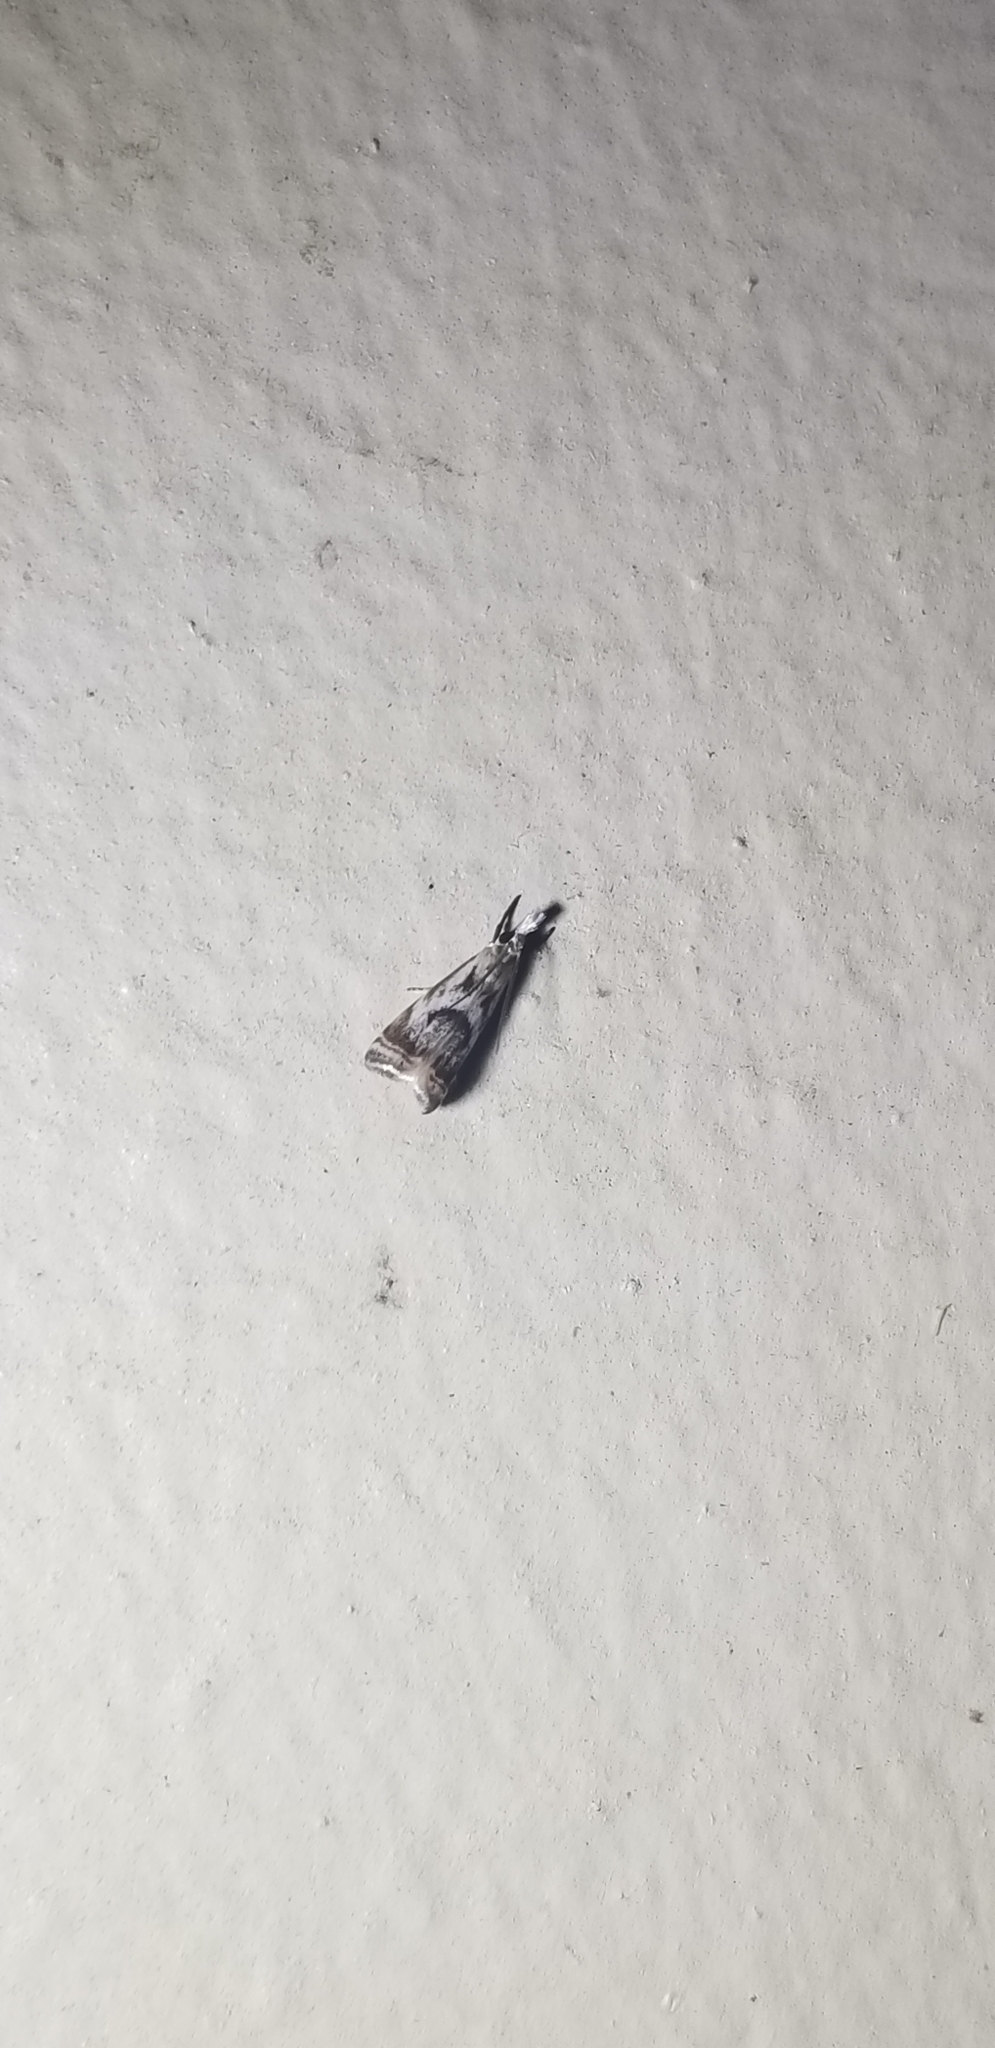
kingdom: Animalia
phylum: Arthropoda
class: Insecta
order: Lepidoptera
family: Crambidae
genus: Microcrambus
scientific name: Microcrambus elegans
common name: Elegant grass-veneer
